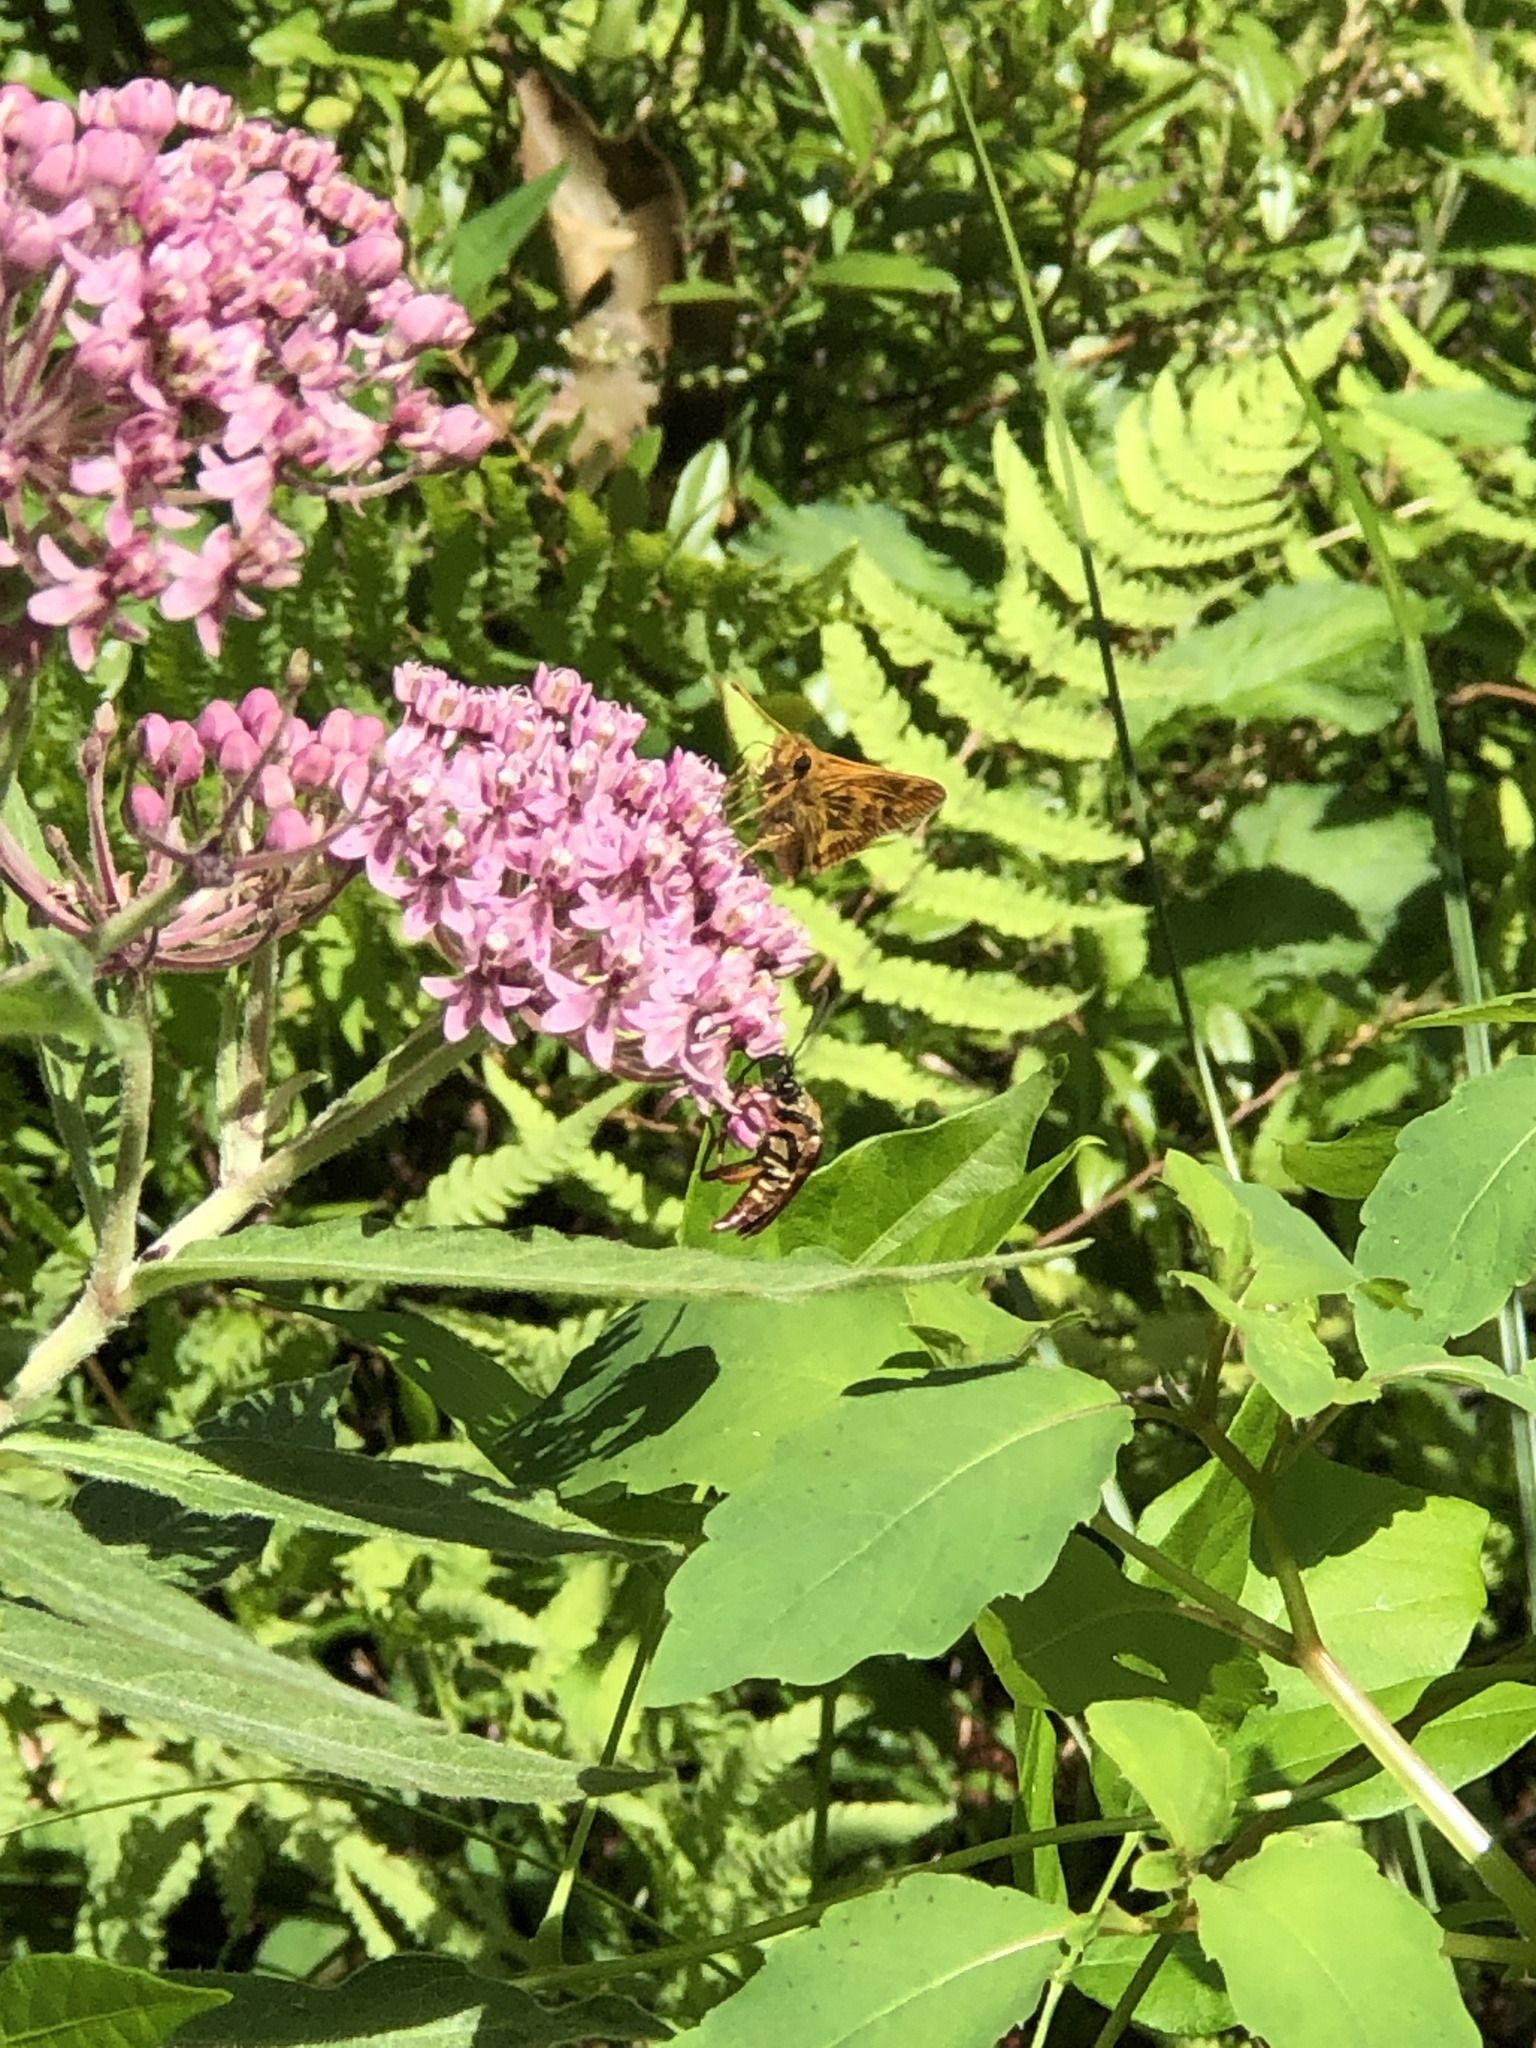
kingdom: Animalia
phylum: Arthropoda
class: Insecta
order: Lepidoptera
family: Hesperiidae
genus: Polites
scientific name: Polites coras
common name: Peck's skipper
